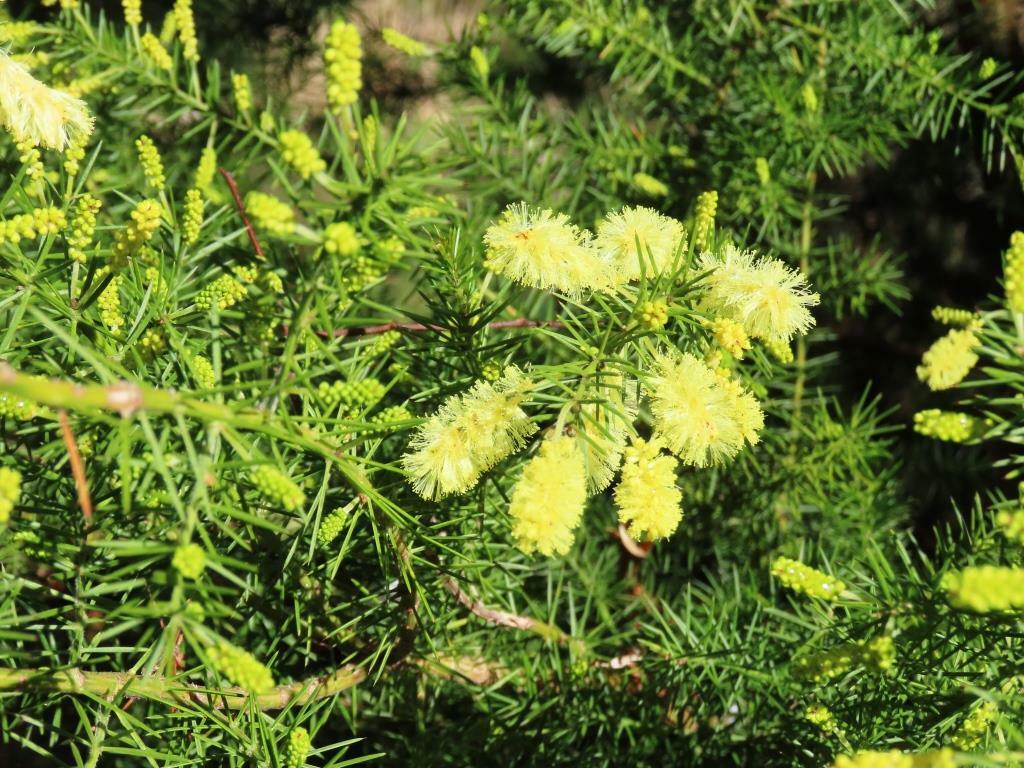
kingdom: Plantae
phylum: Tracheophyta
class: Magnoliopsida
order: Fabales
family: Fabaceae
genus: Acacia
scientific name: Acacia verticillata
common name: Prickly moses
